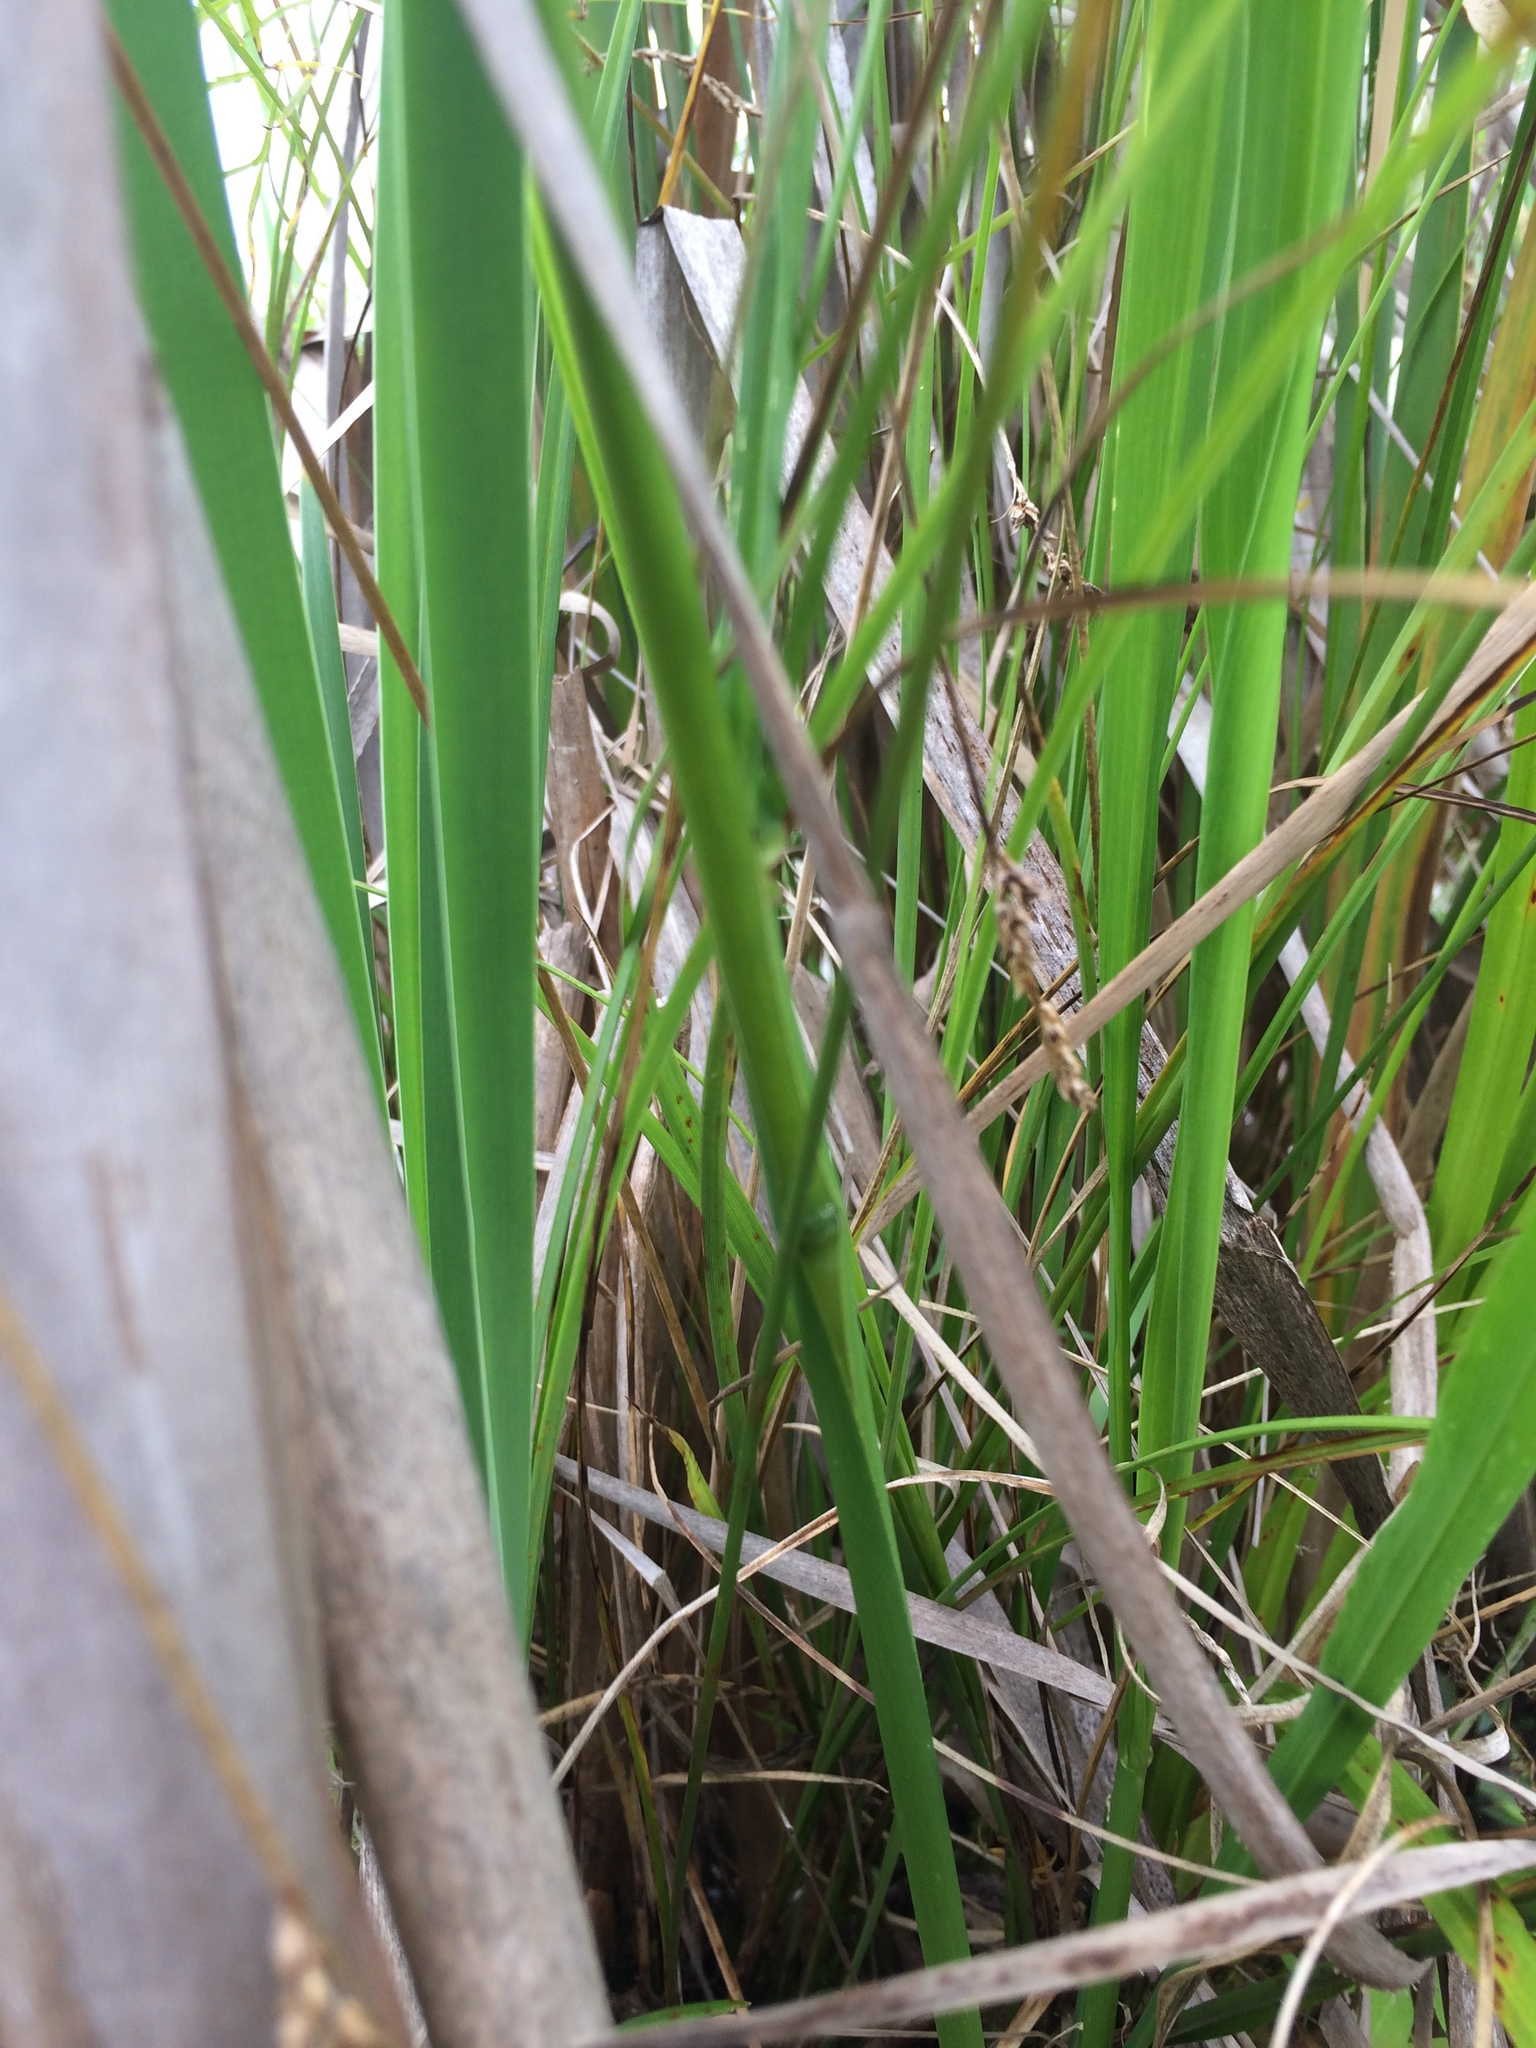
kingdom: Plantae
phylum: Tracheophyta
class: Liliopsida
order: Poales
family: Poaceae
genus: Zizania
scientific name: Zizania palustris
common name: Northern wild rice
